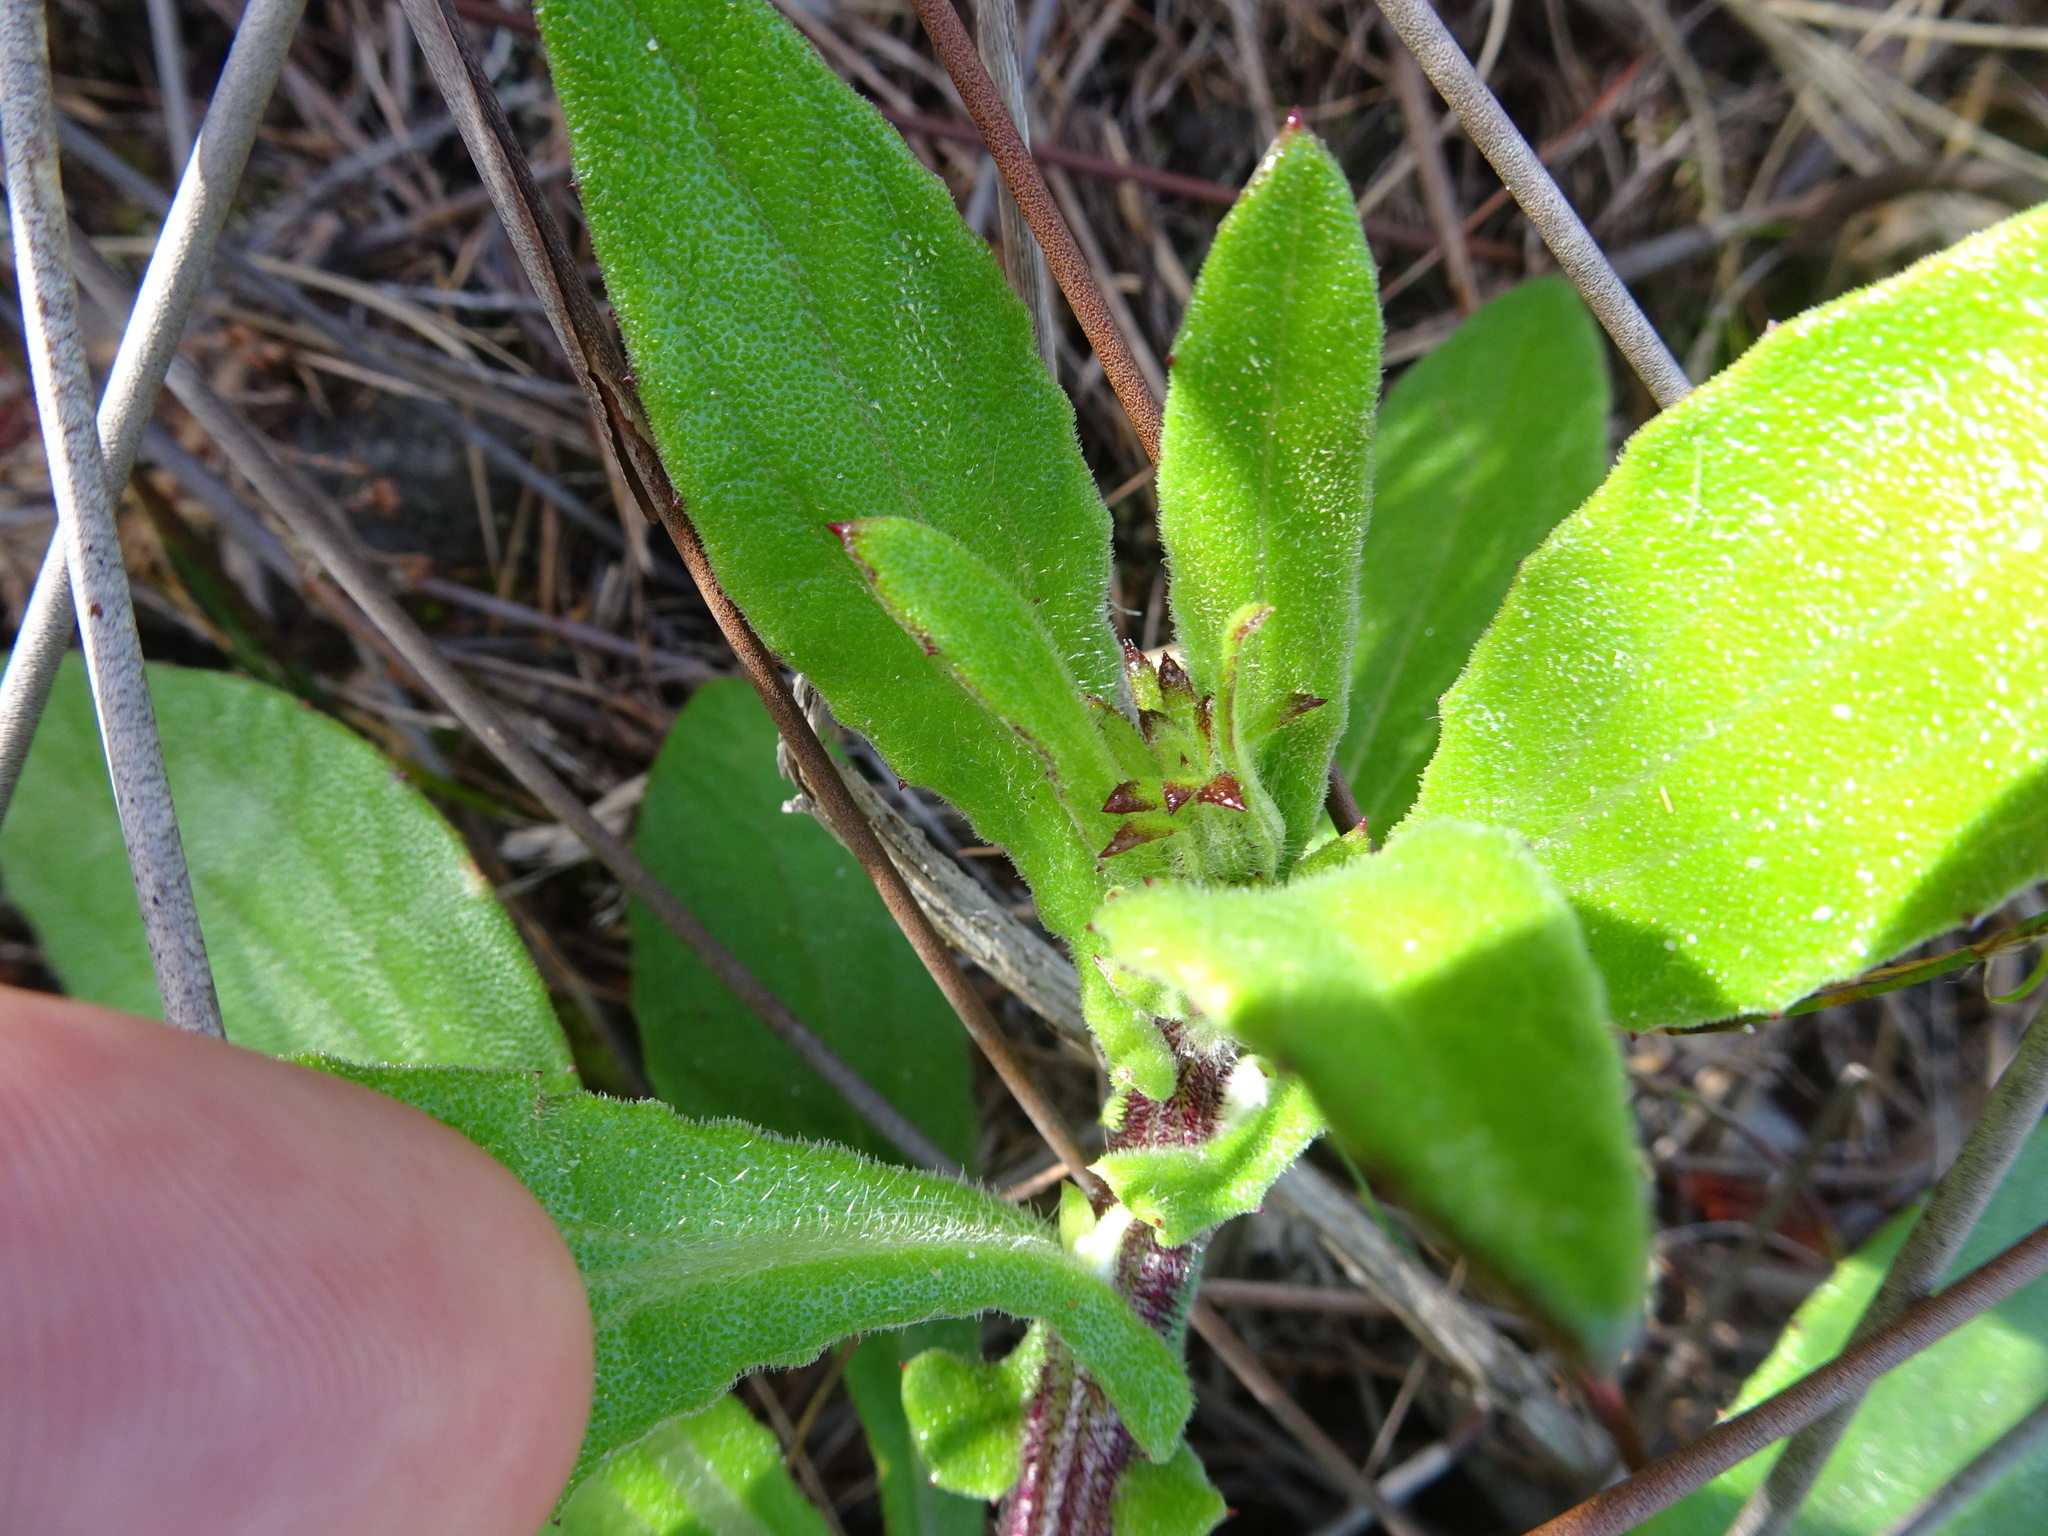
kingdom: Plantae
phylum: Tracheophyta
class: Magnoliopsida
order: Asterales
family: Asteraceae
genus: Arctotis
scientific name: Arctotis scabra
